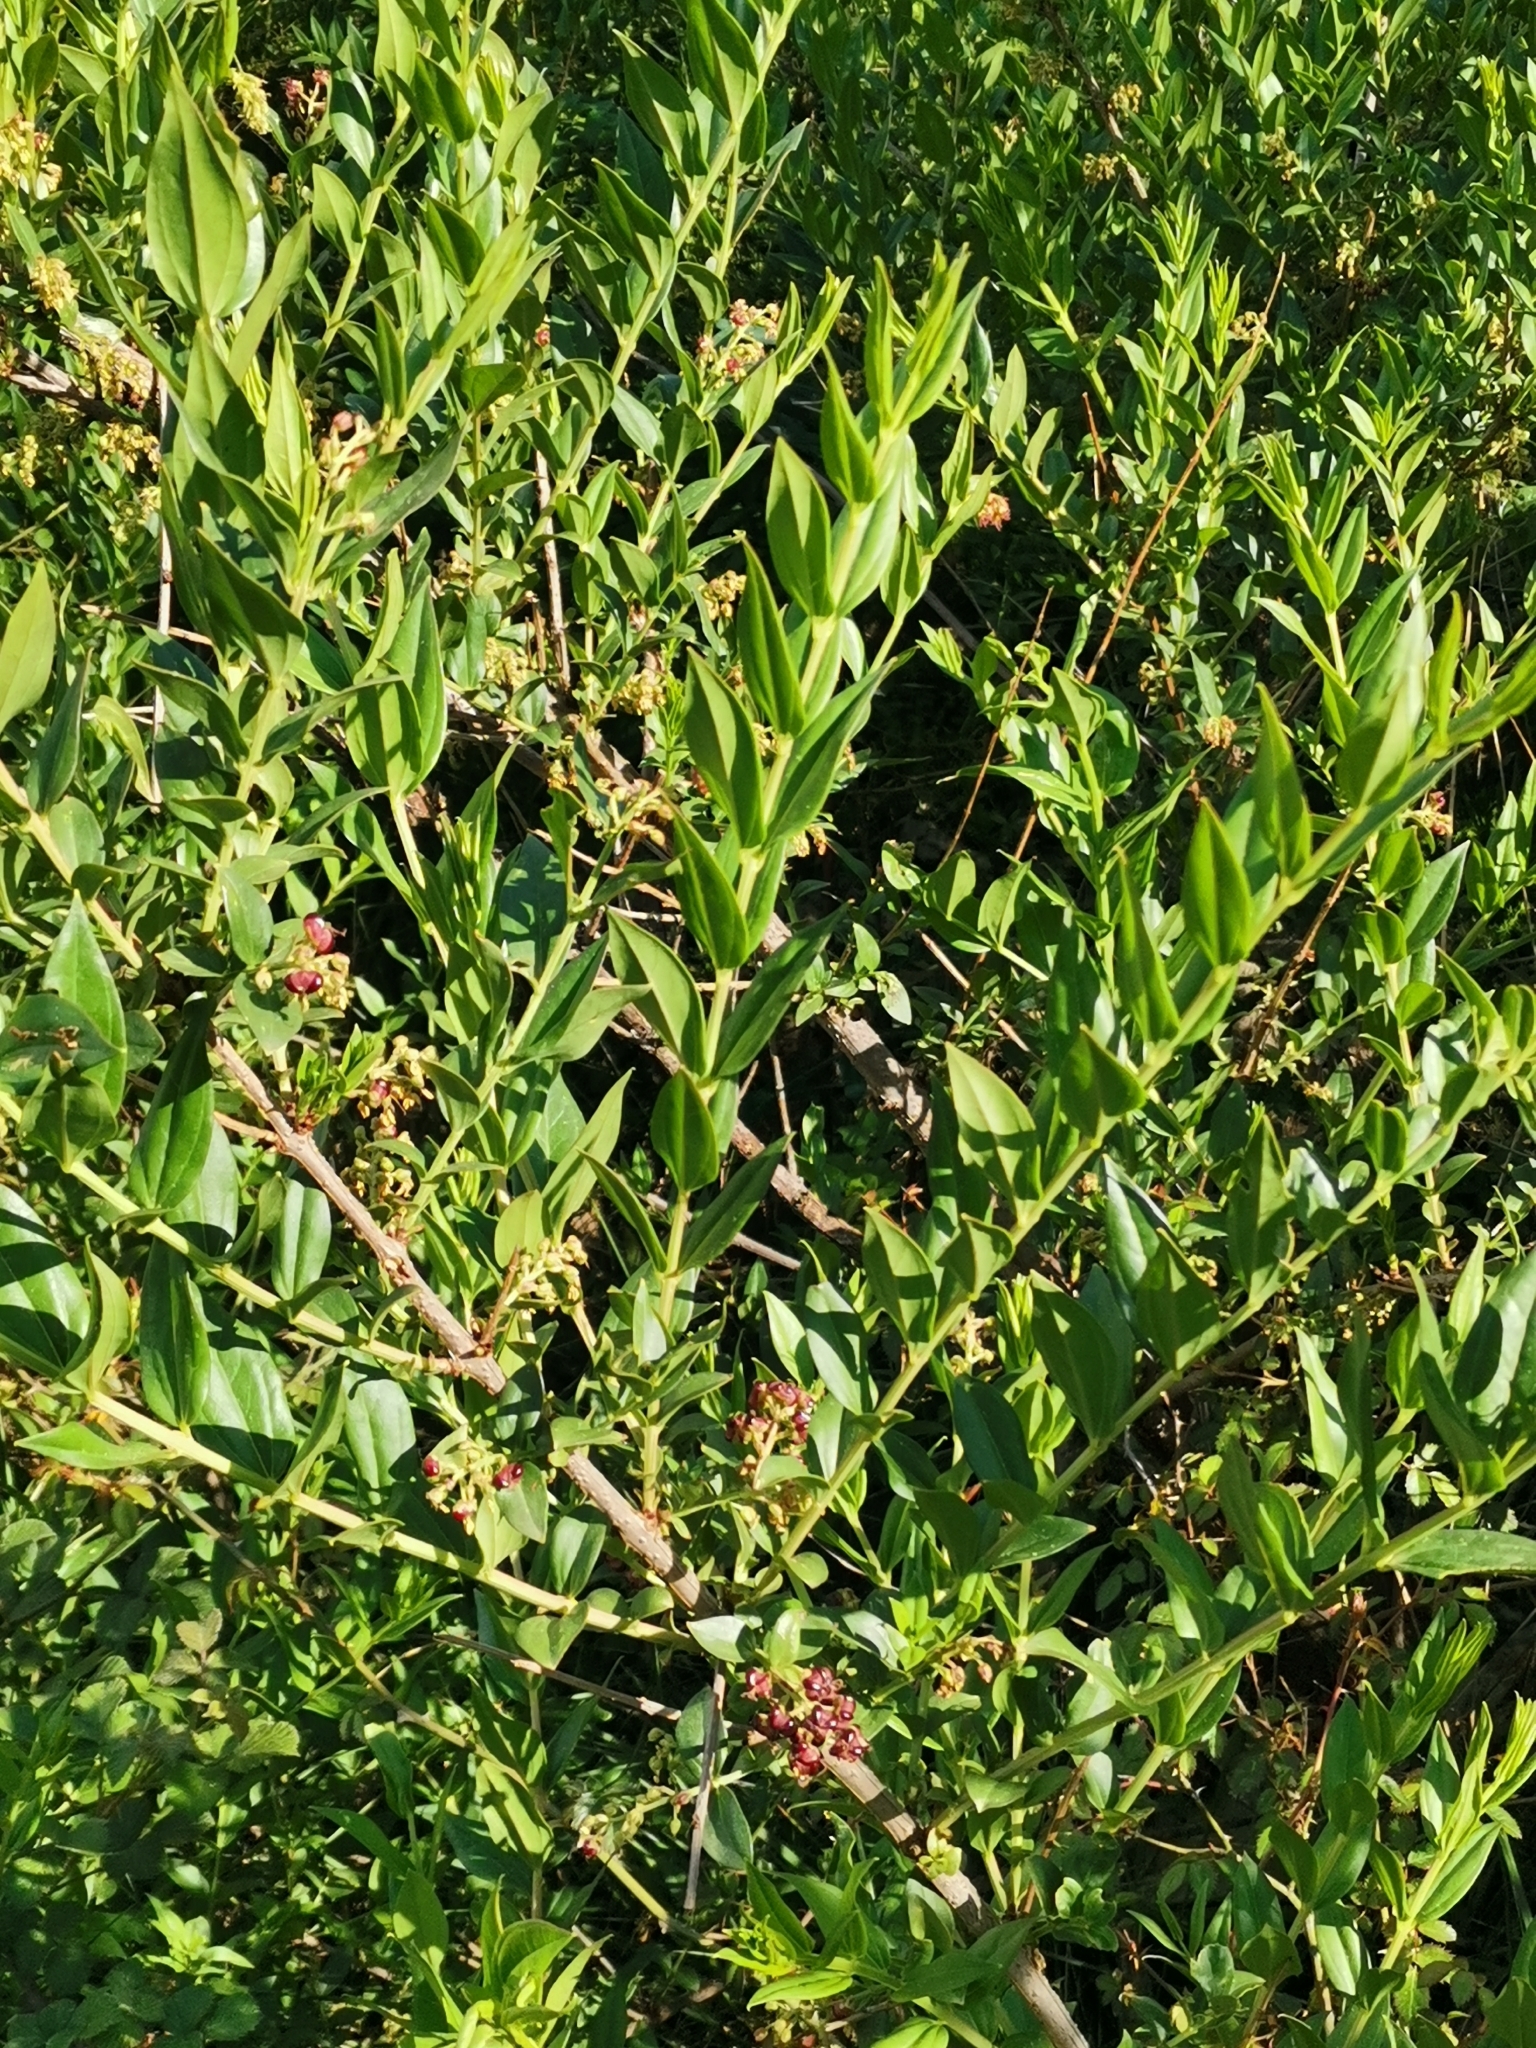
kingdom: Plantae
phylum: Tracheophyta
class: Magnoliopsida
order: Cucurbitales
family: Coriariaceae
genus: Coriaria
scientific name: Coriaria myrtifolia
